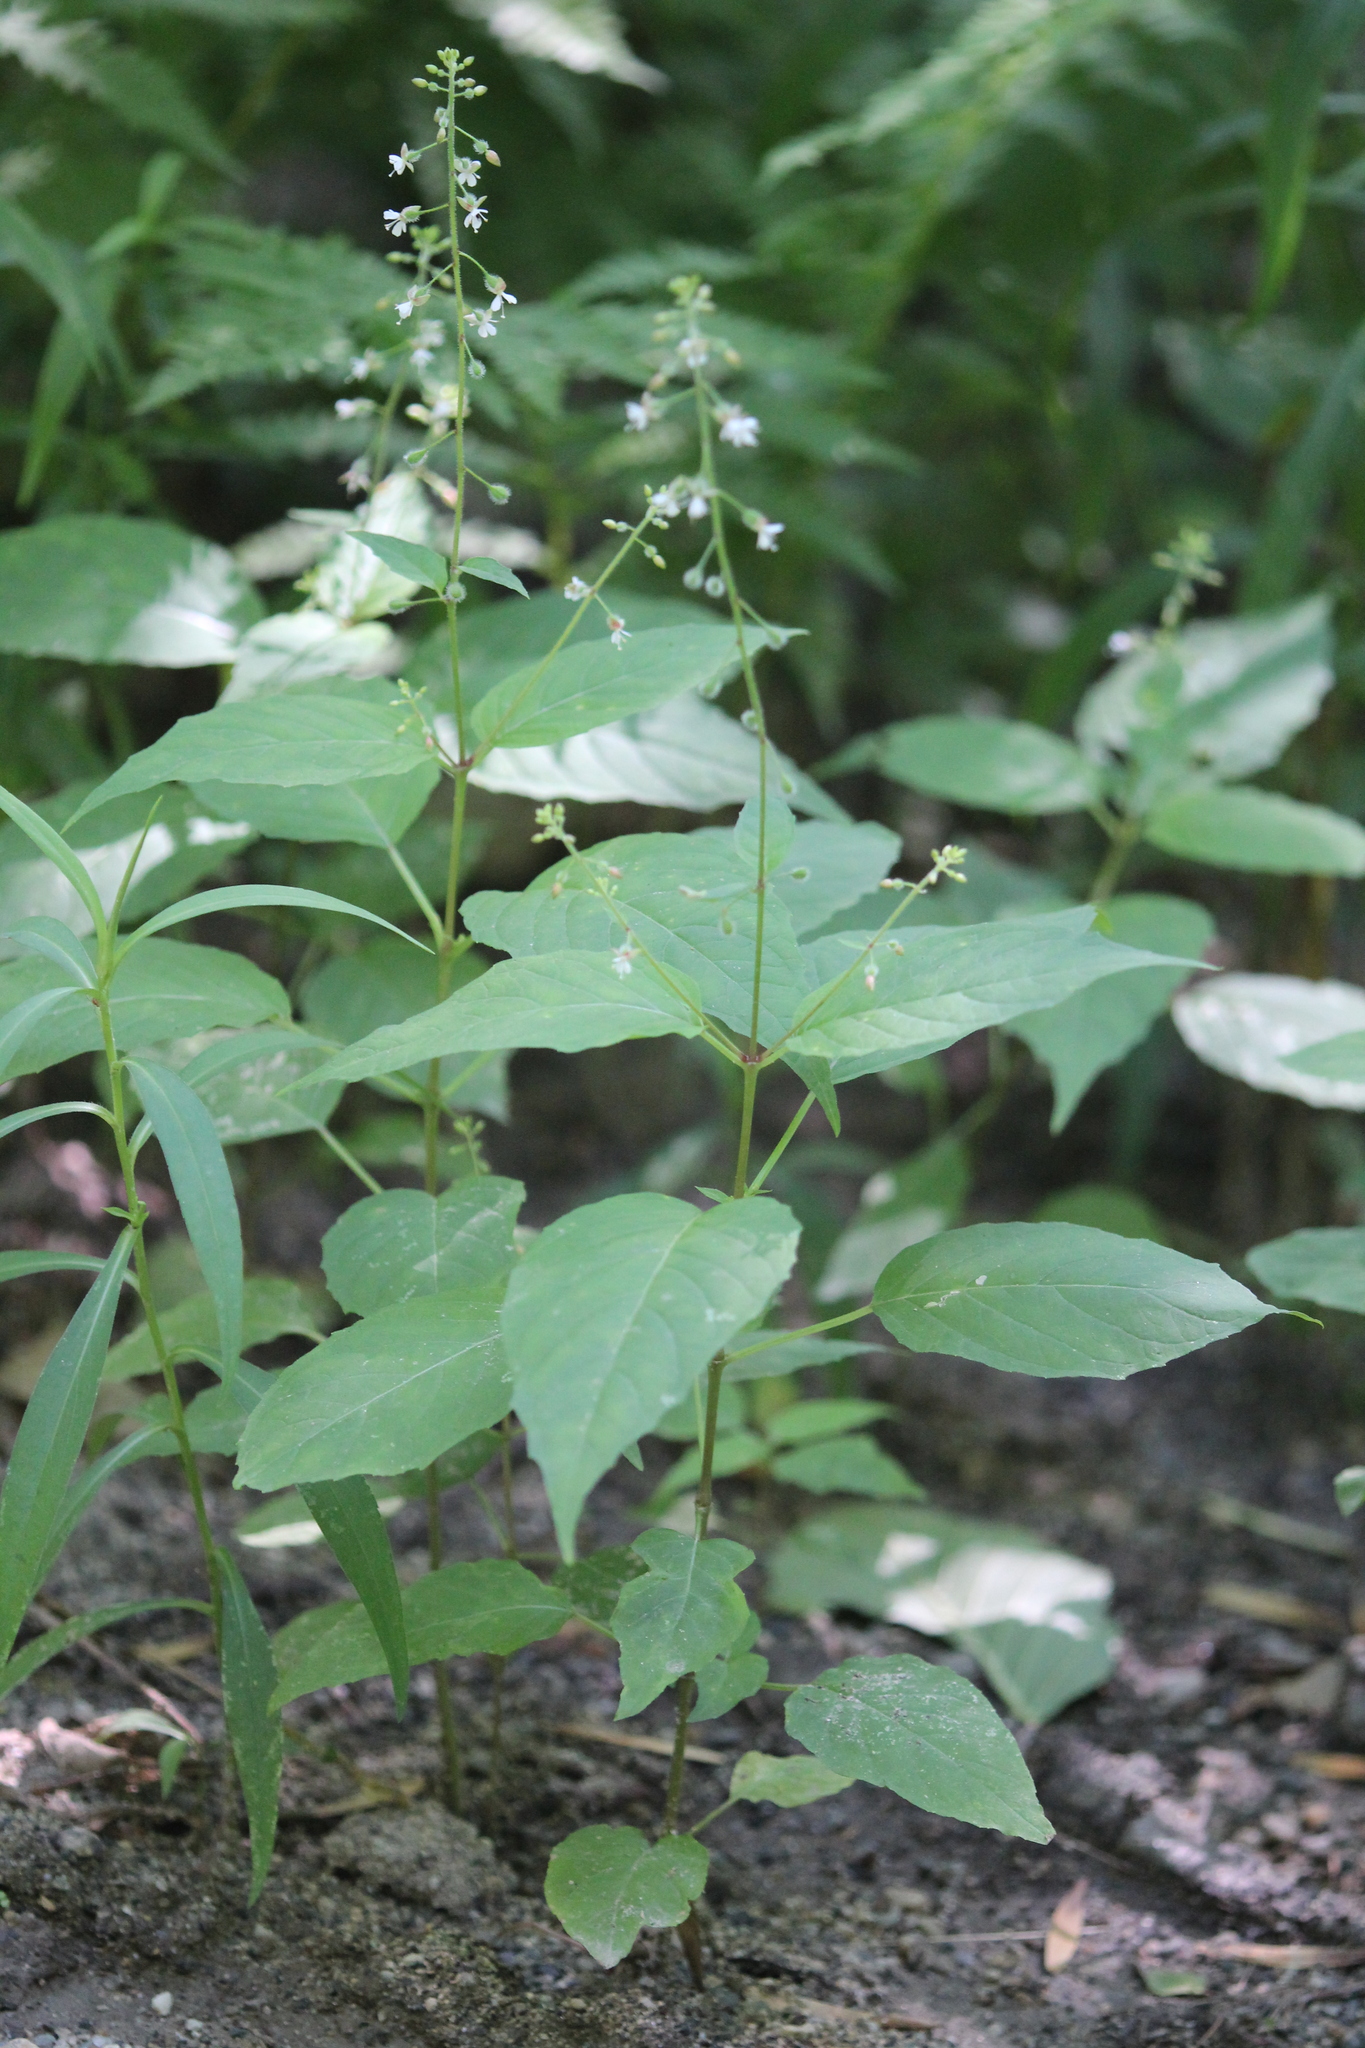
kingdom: Plantae
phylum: Tracheophyta
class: Magnoliopsida
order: Myrtales
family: Onagraceae
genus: Circaea
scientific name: Circaea canadensis
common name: Broad-leaved enchanter's nightshade
